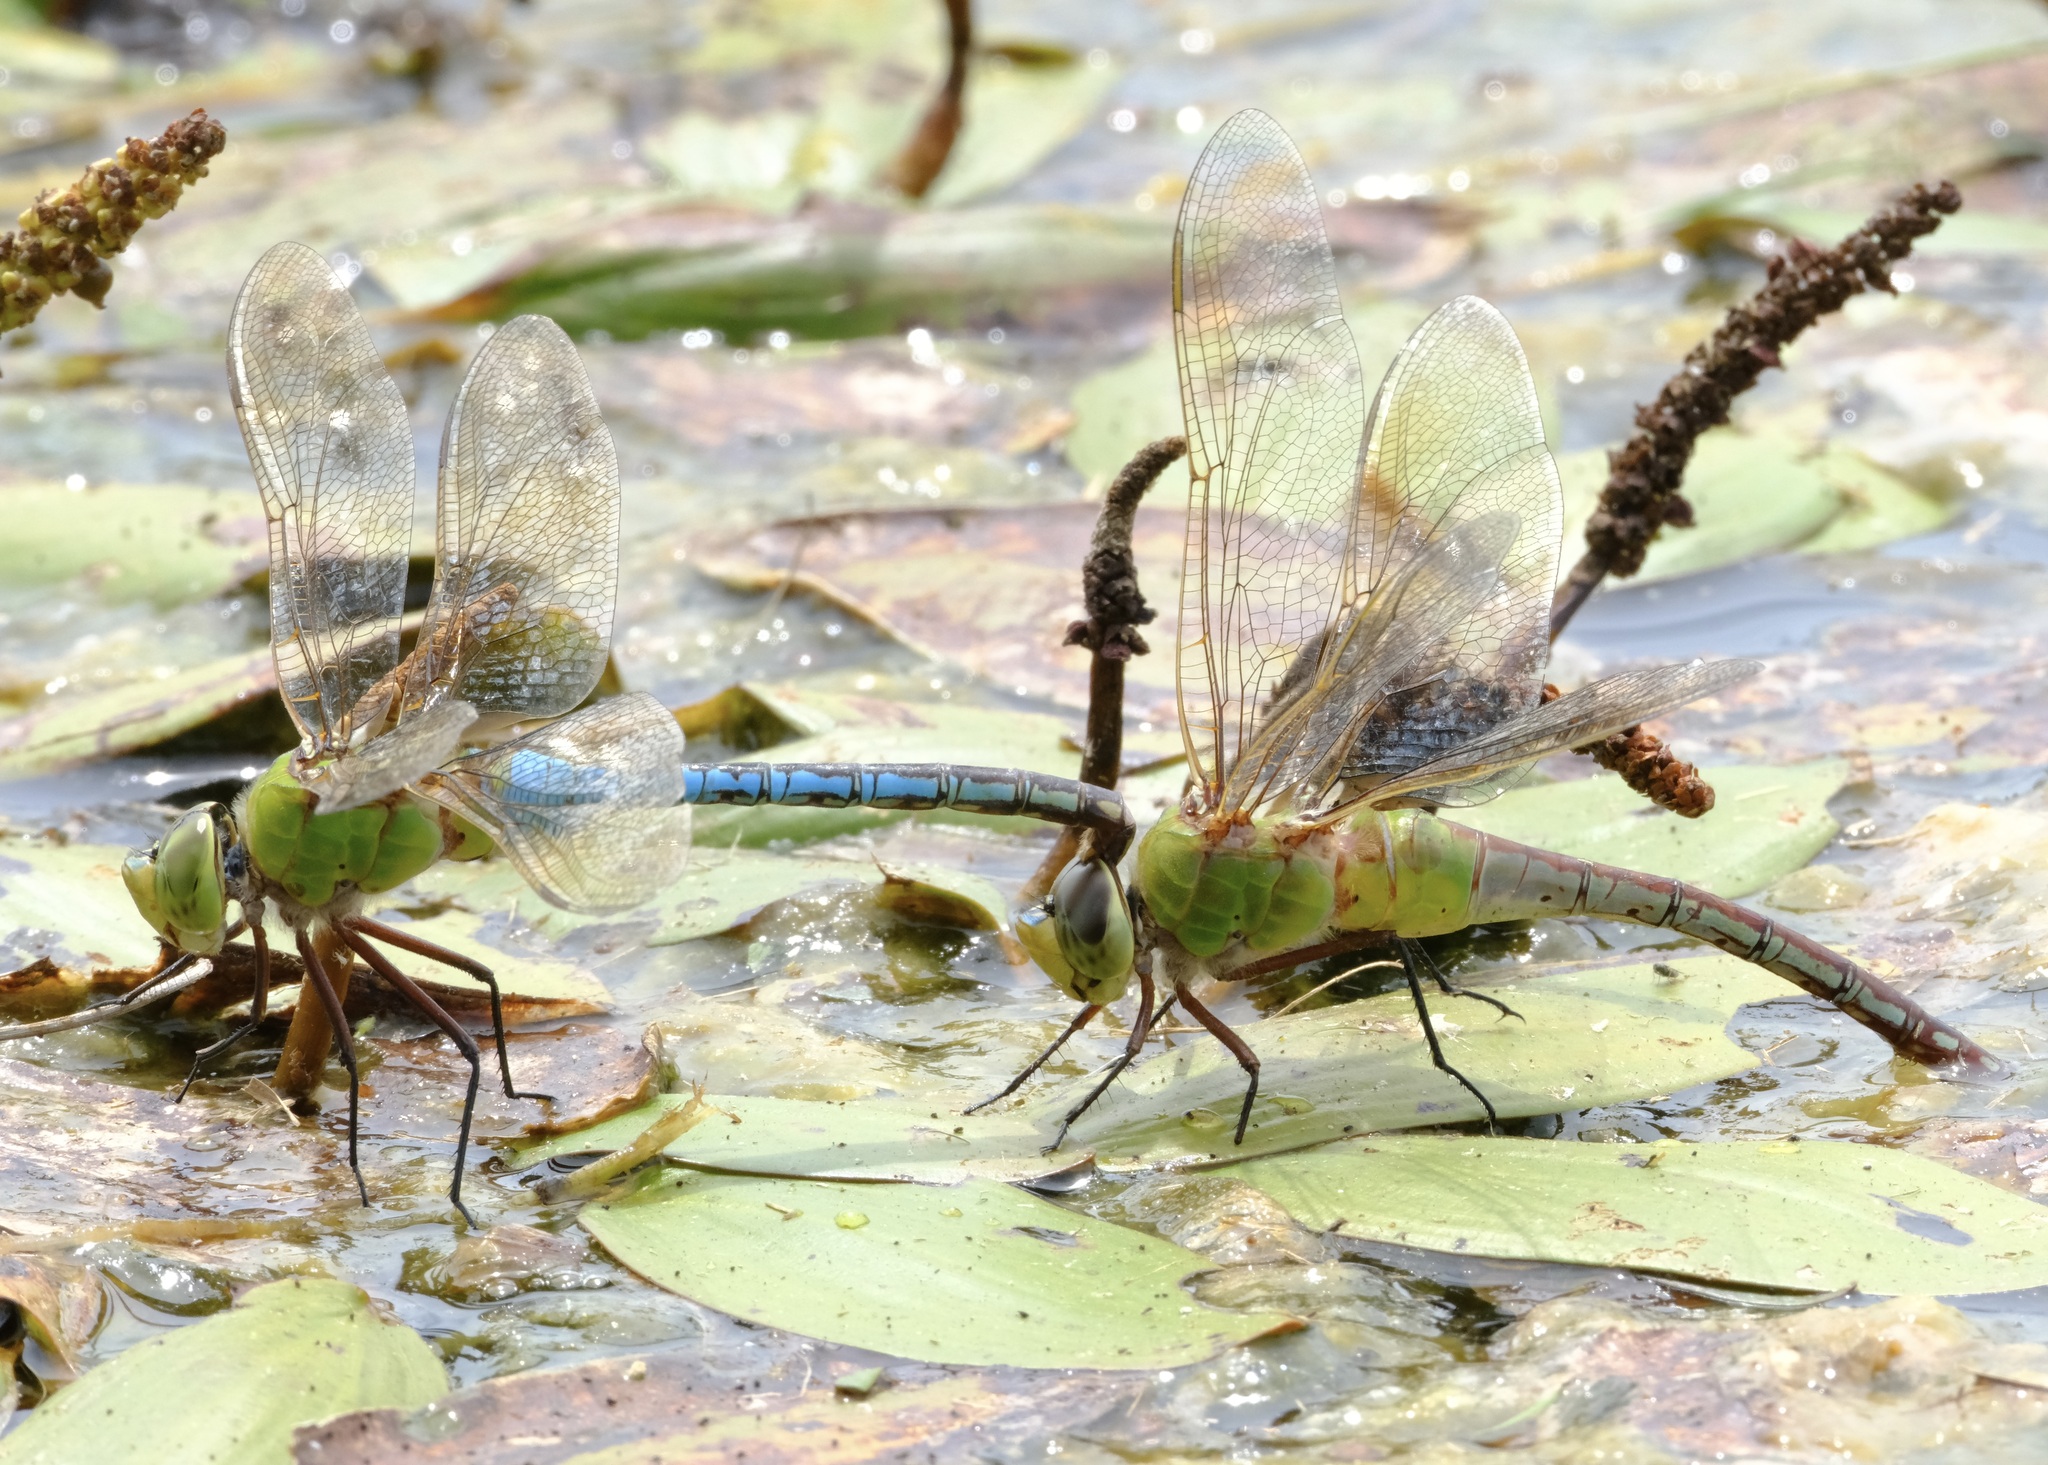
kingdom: Animalia
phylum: Arthropoda
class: Insecta
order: Odonata
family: Aeshnidae
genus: Anax
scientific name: Anax junius
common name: Common green darner
